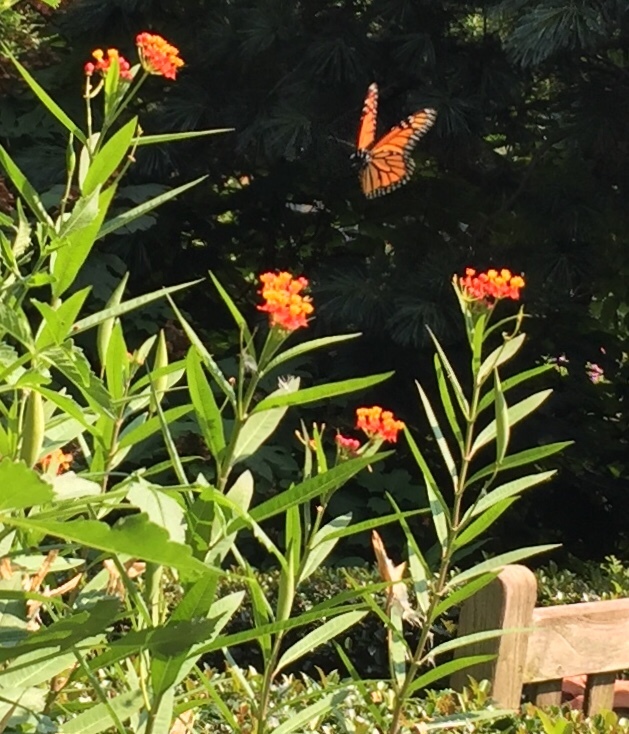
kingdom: Animalia
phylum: Arthropoda
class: Insecta
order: Lepidoptera
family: Nymphalidae
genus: Danaus
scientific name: Danaus plexippus
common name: Monarch
